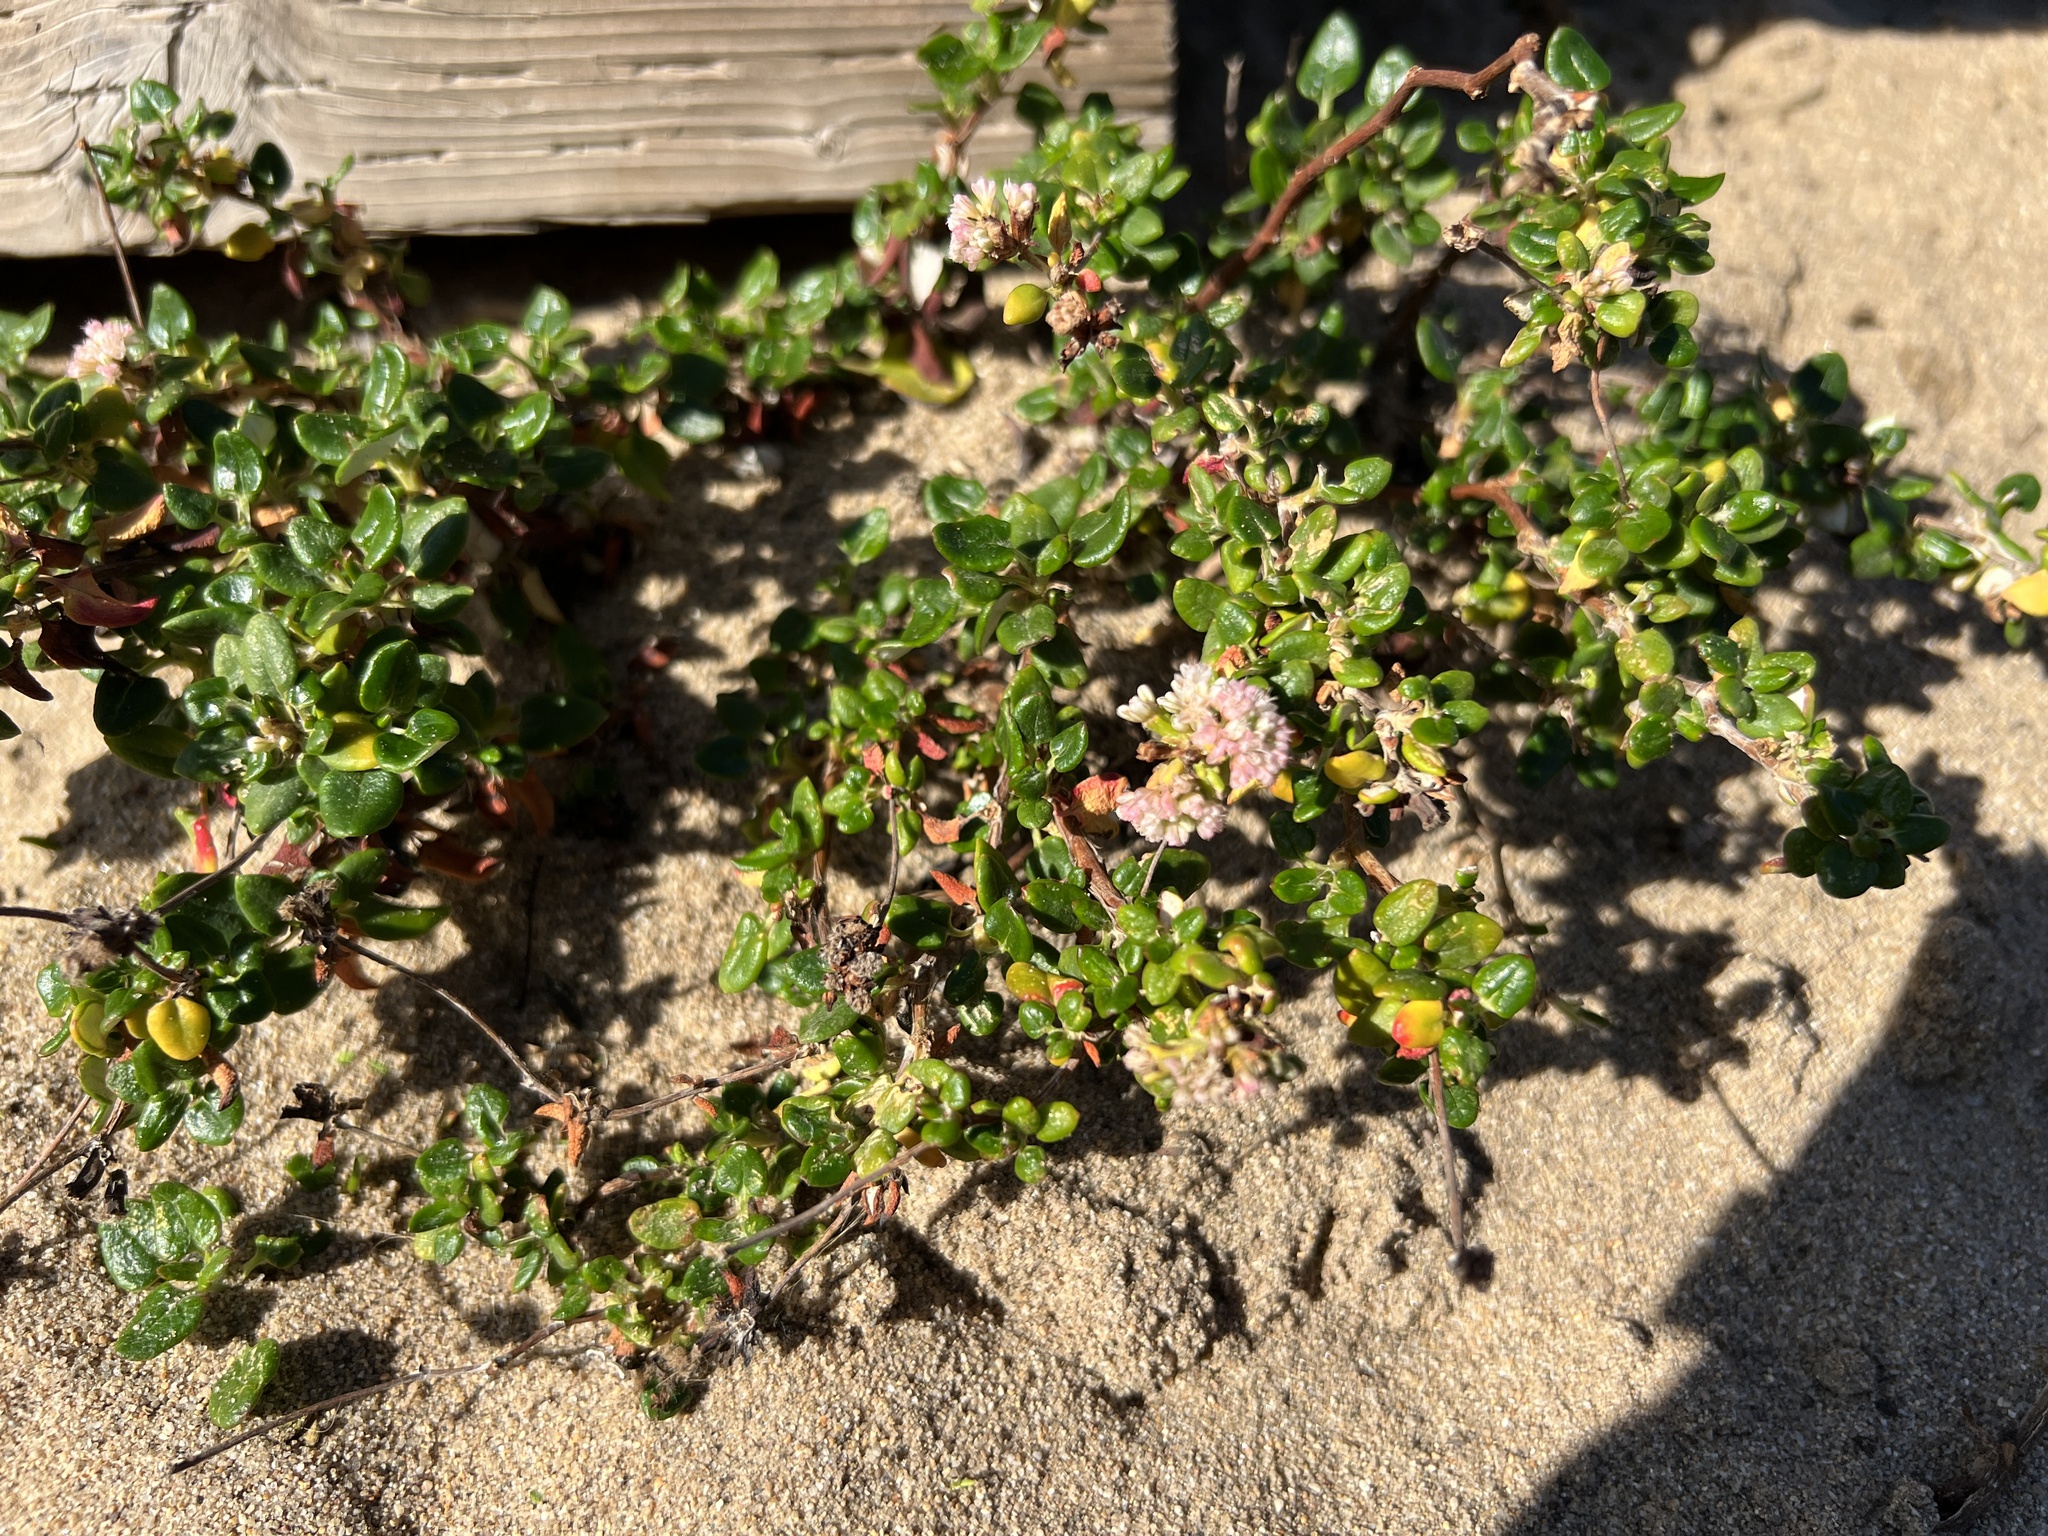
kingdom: Plantae
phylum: Tracheophyta
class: Magnoliopsida
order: Caryophyllales
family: Polygonaceae
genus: Eriogonum
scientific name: Eriogonum parvifolium
